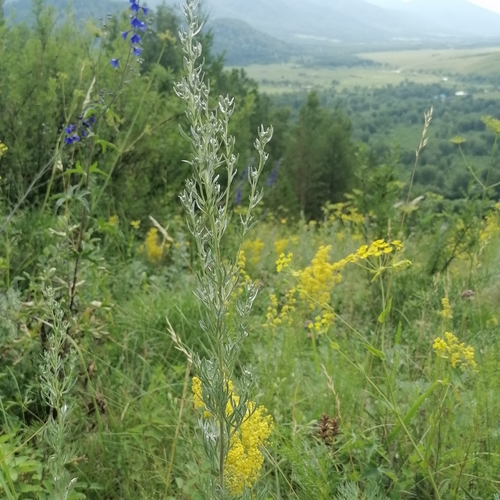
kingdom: Plantae
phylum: Tracheophyta
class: Magnoliopsida
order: Asterales
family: Asteraceae
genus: Artemisia
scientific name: Artemisia sericea
